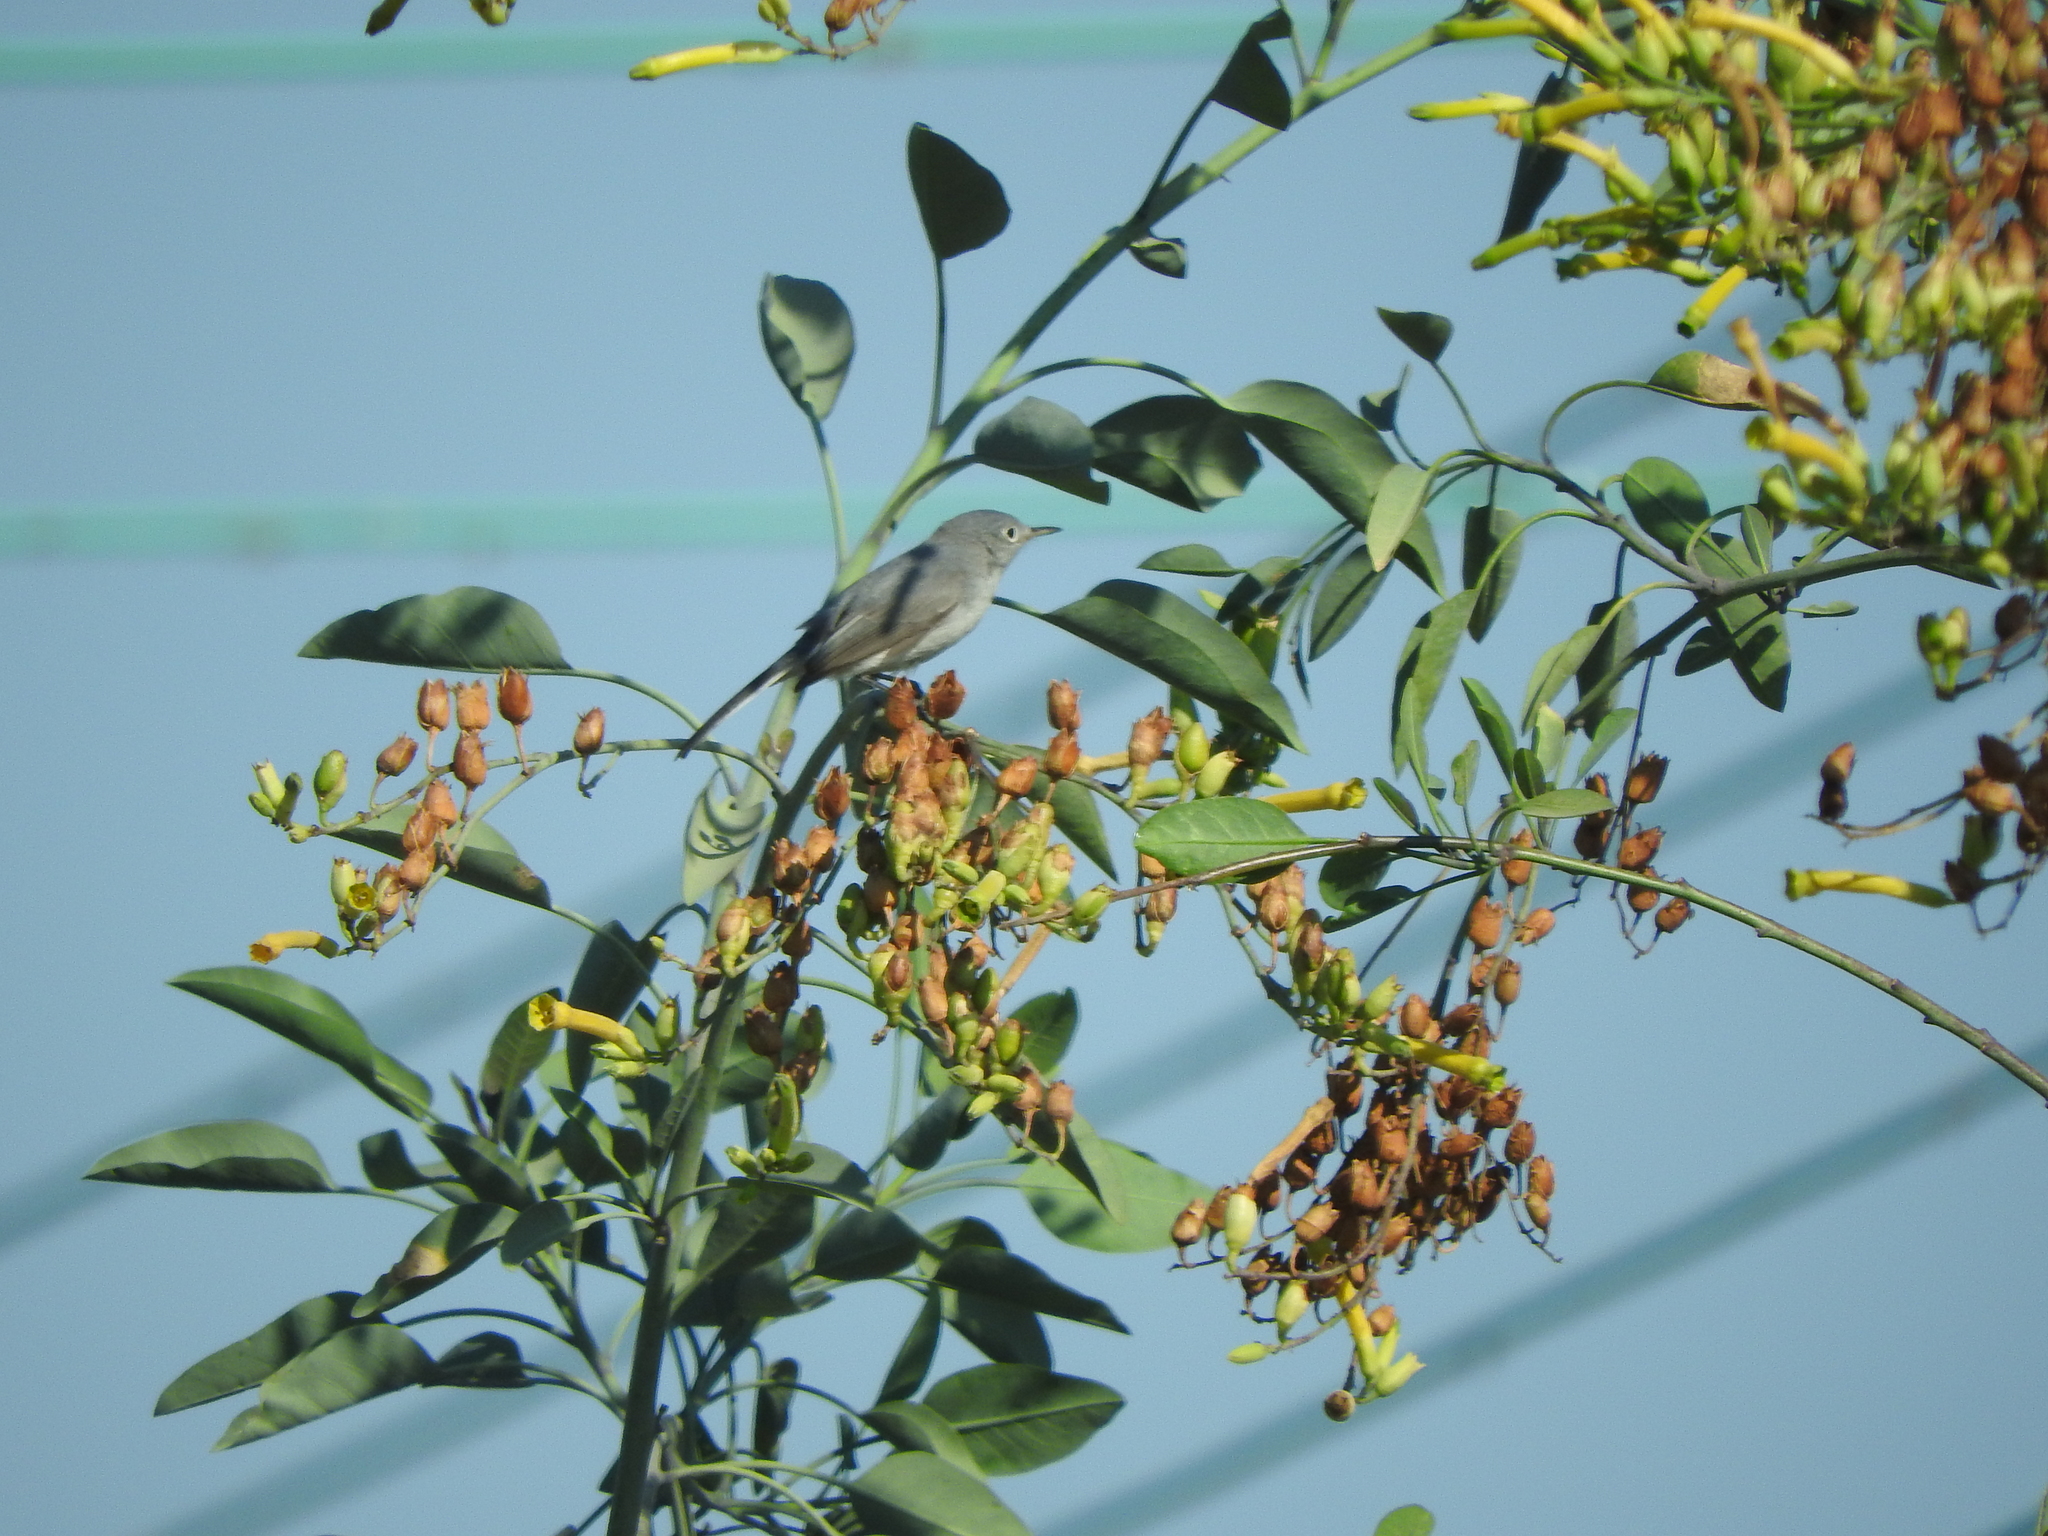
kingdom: Animalia
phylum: Chordata
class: Aves
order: Passeriformes
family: Polioptilidae
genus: Polioptila
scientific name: Polioptila caerulea
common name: Blue-gray gnatcatcher
